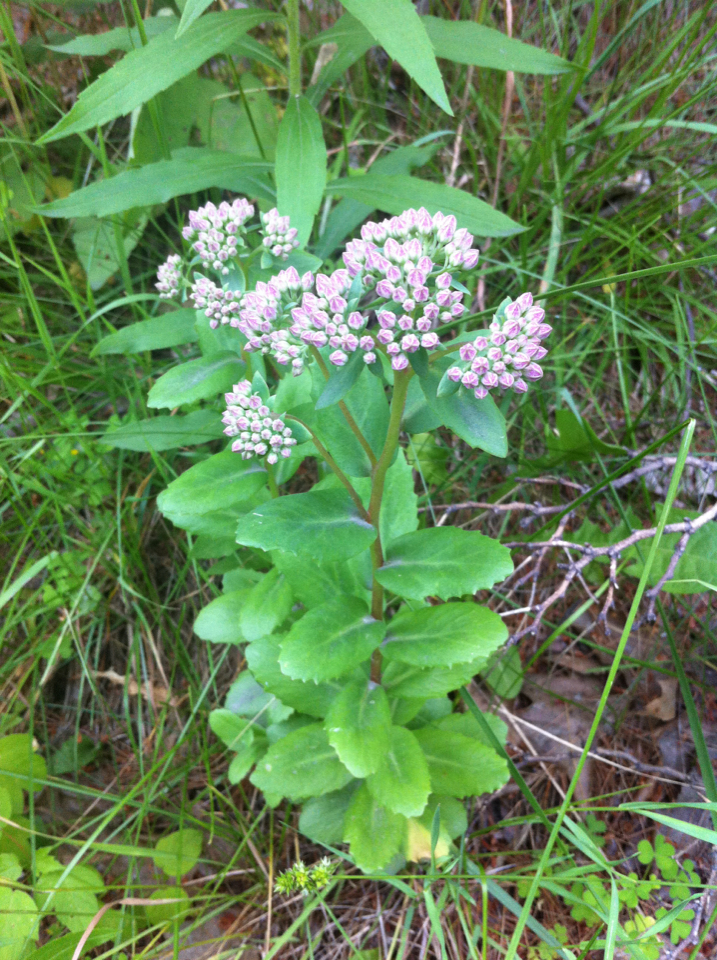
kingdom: Plantae
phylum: Tracheophyta
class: Magnoliopsida
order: Saxifragales
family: Crassulaceae
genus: Hylotelephium
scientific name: Hylotelephium telephium
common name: Live-forever
